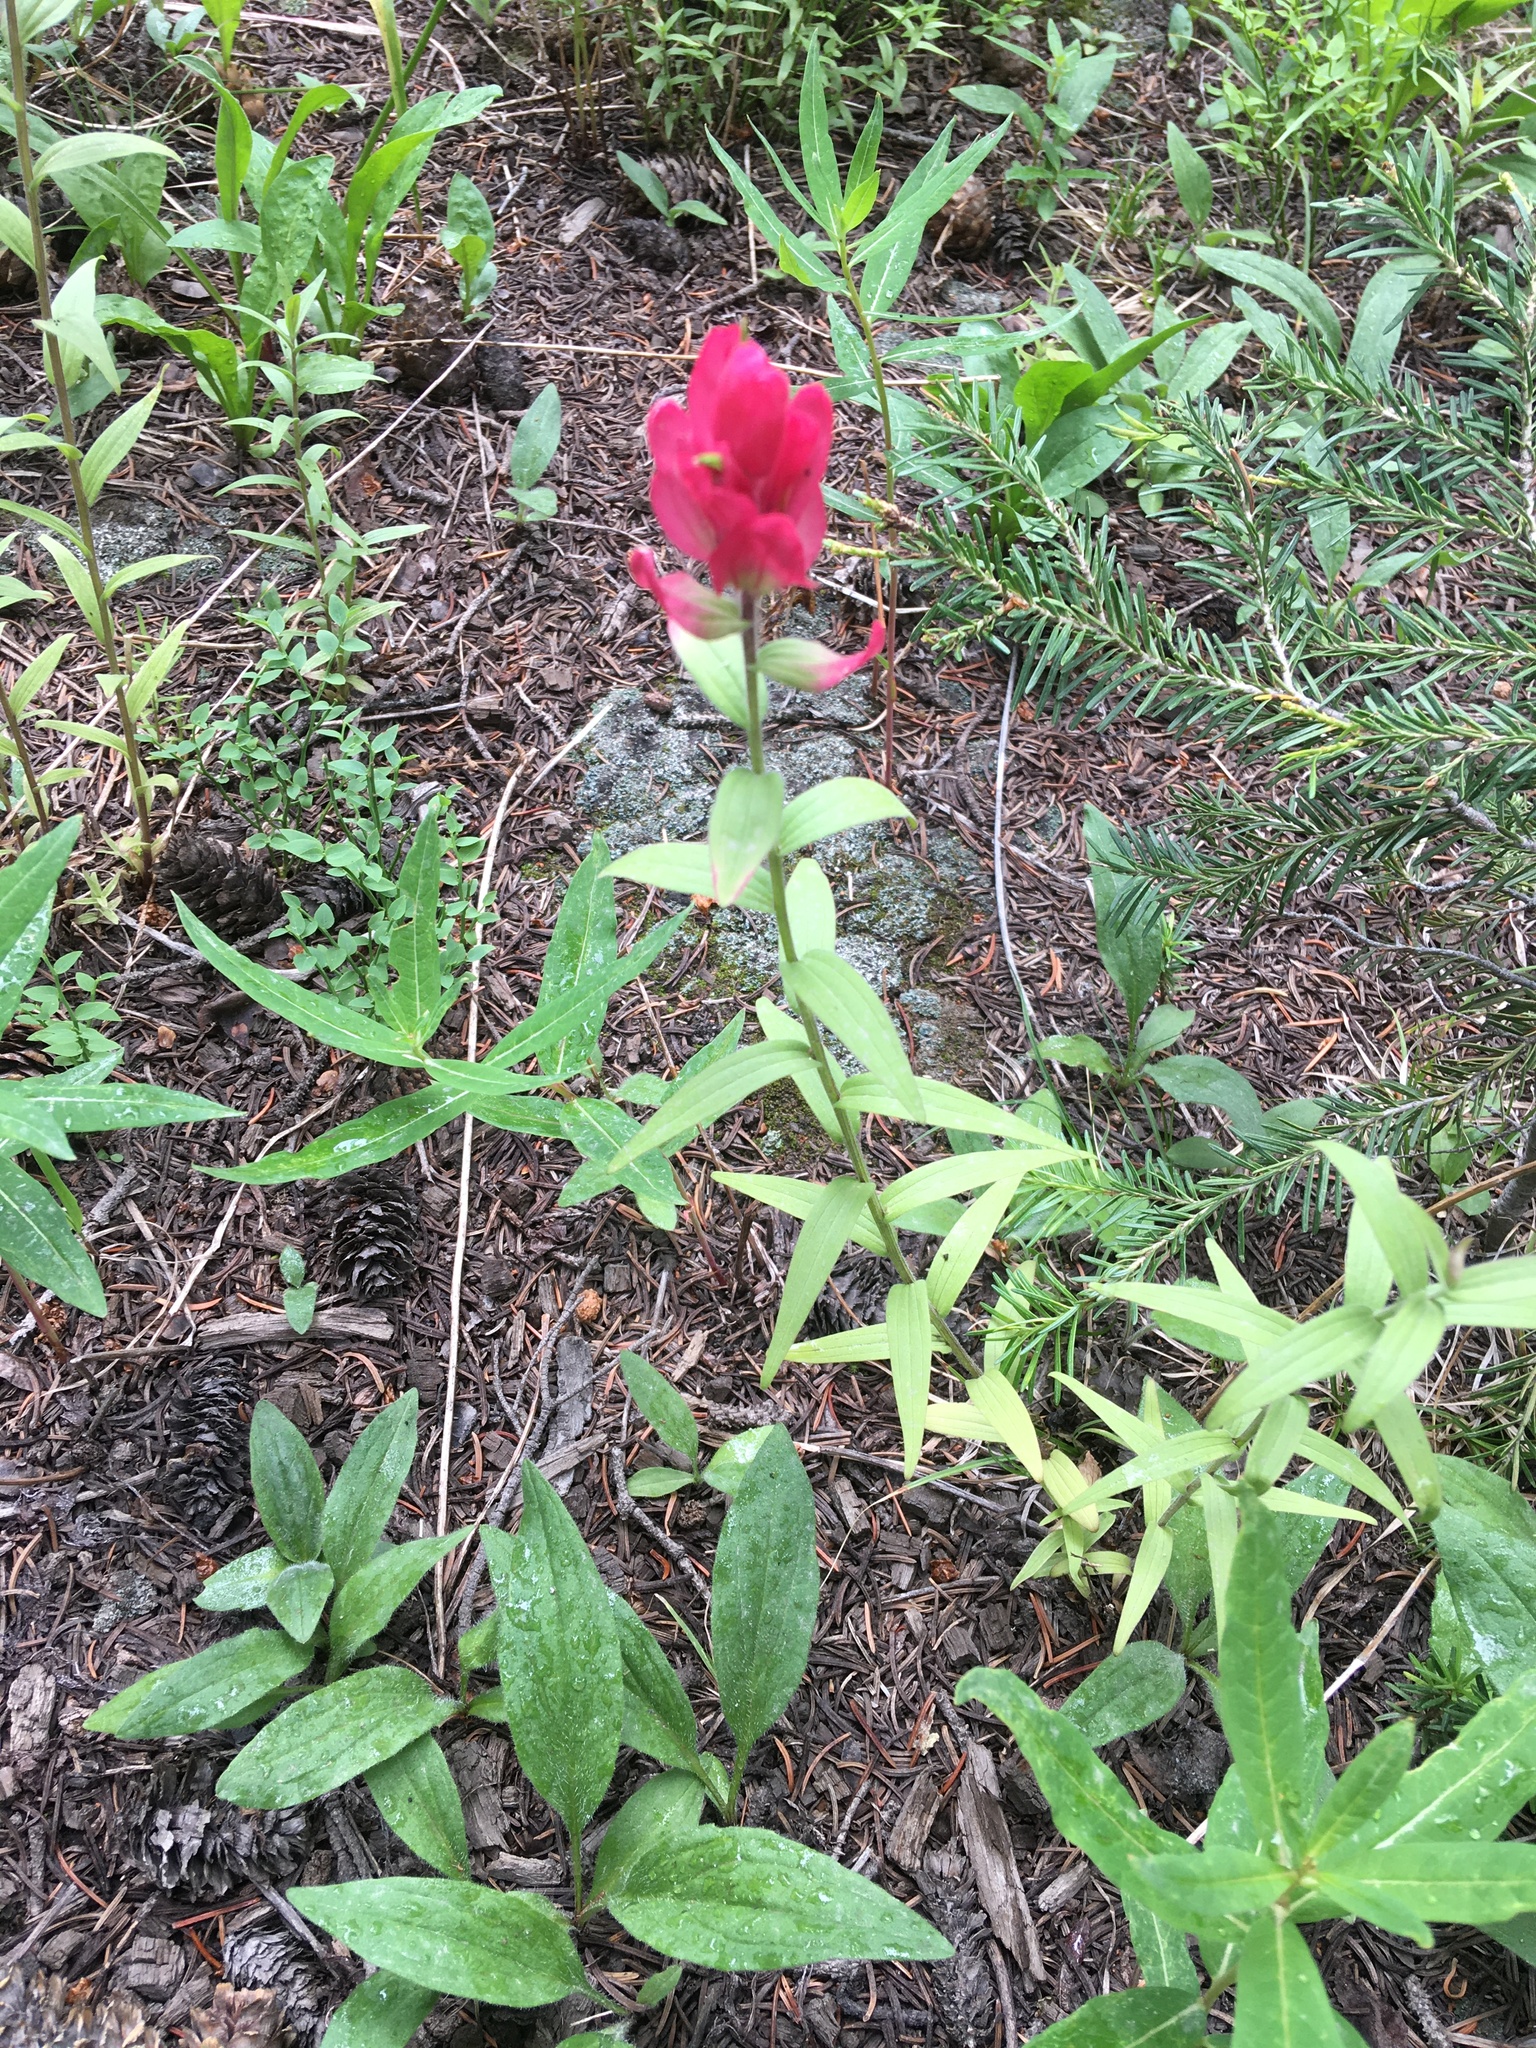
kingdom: Plantae
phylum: Tracheophyta
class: Magnoliopsida
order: Lamiales
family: Orobanchaceae
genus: Castilleja
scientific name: Castilleja rhexifolia
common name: Rocky mountain paintbrush
